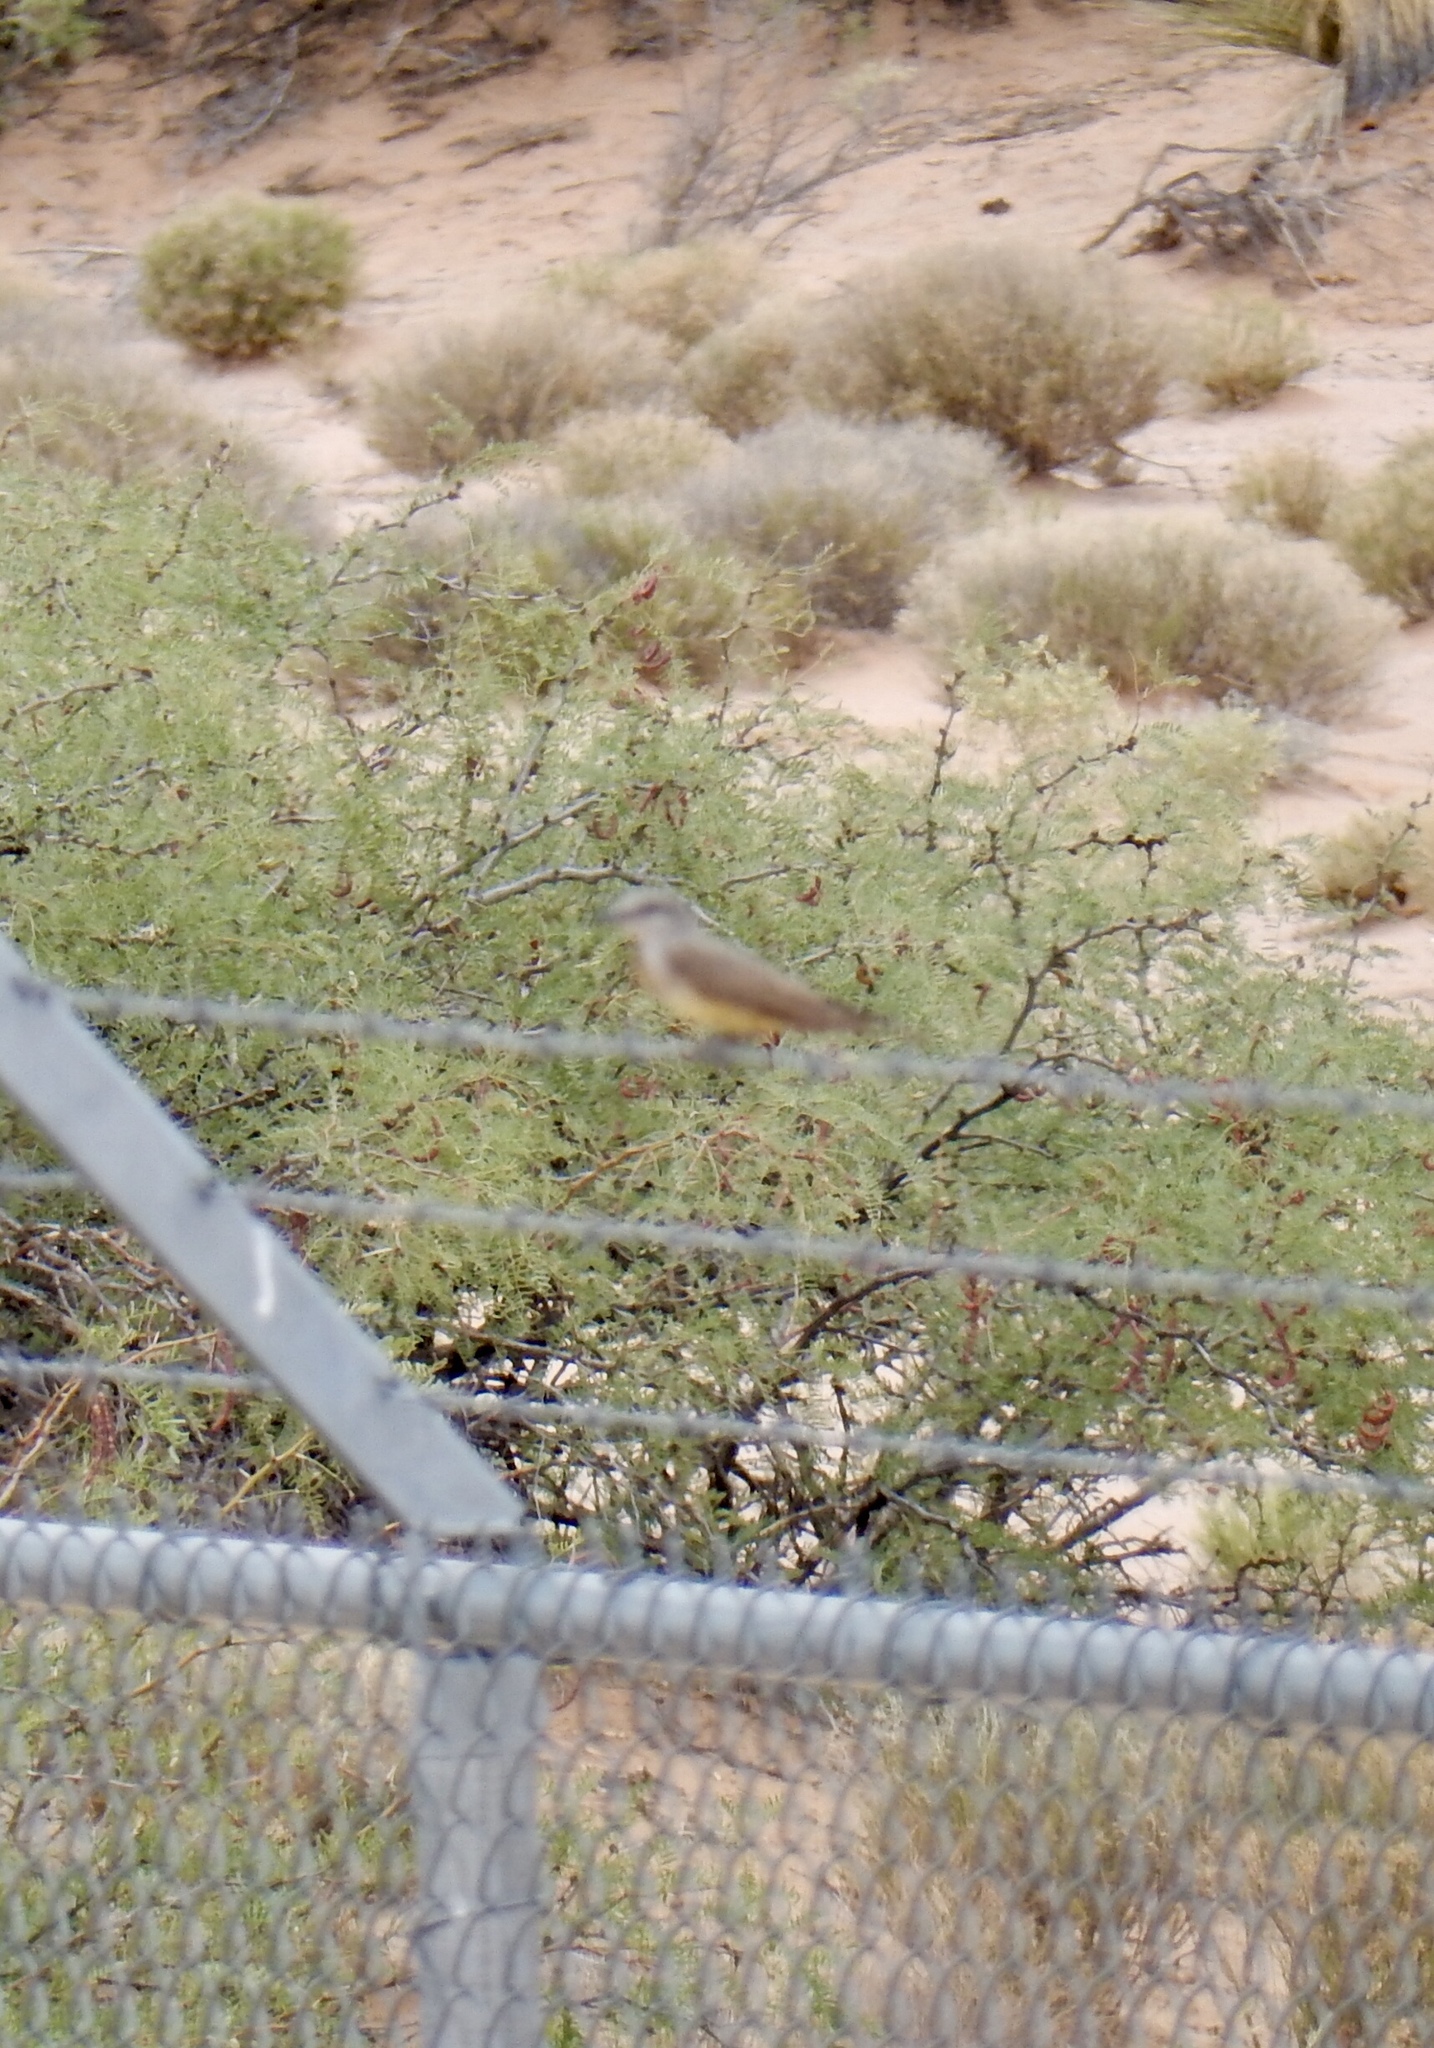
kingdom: Animalia
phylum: Chordata
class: Aves
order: Passeriformes
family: Tyrannidae
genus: Tyrannus
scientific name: Tyrannus verticalis
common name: Western kingbird
